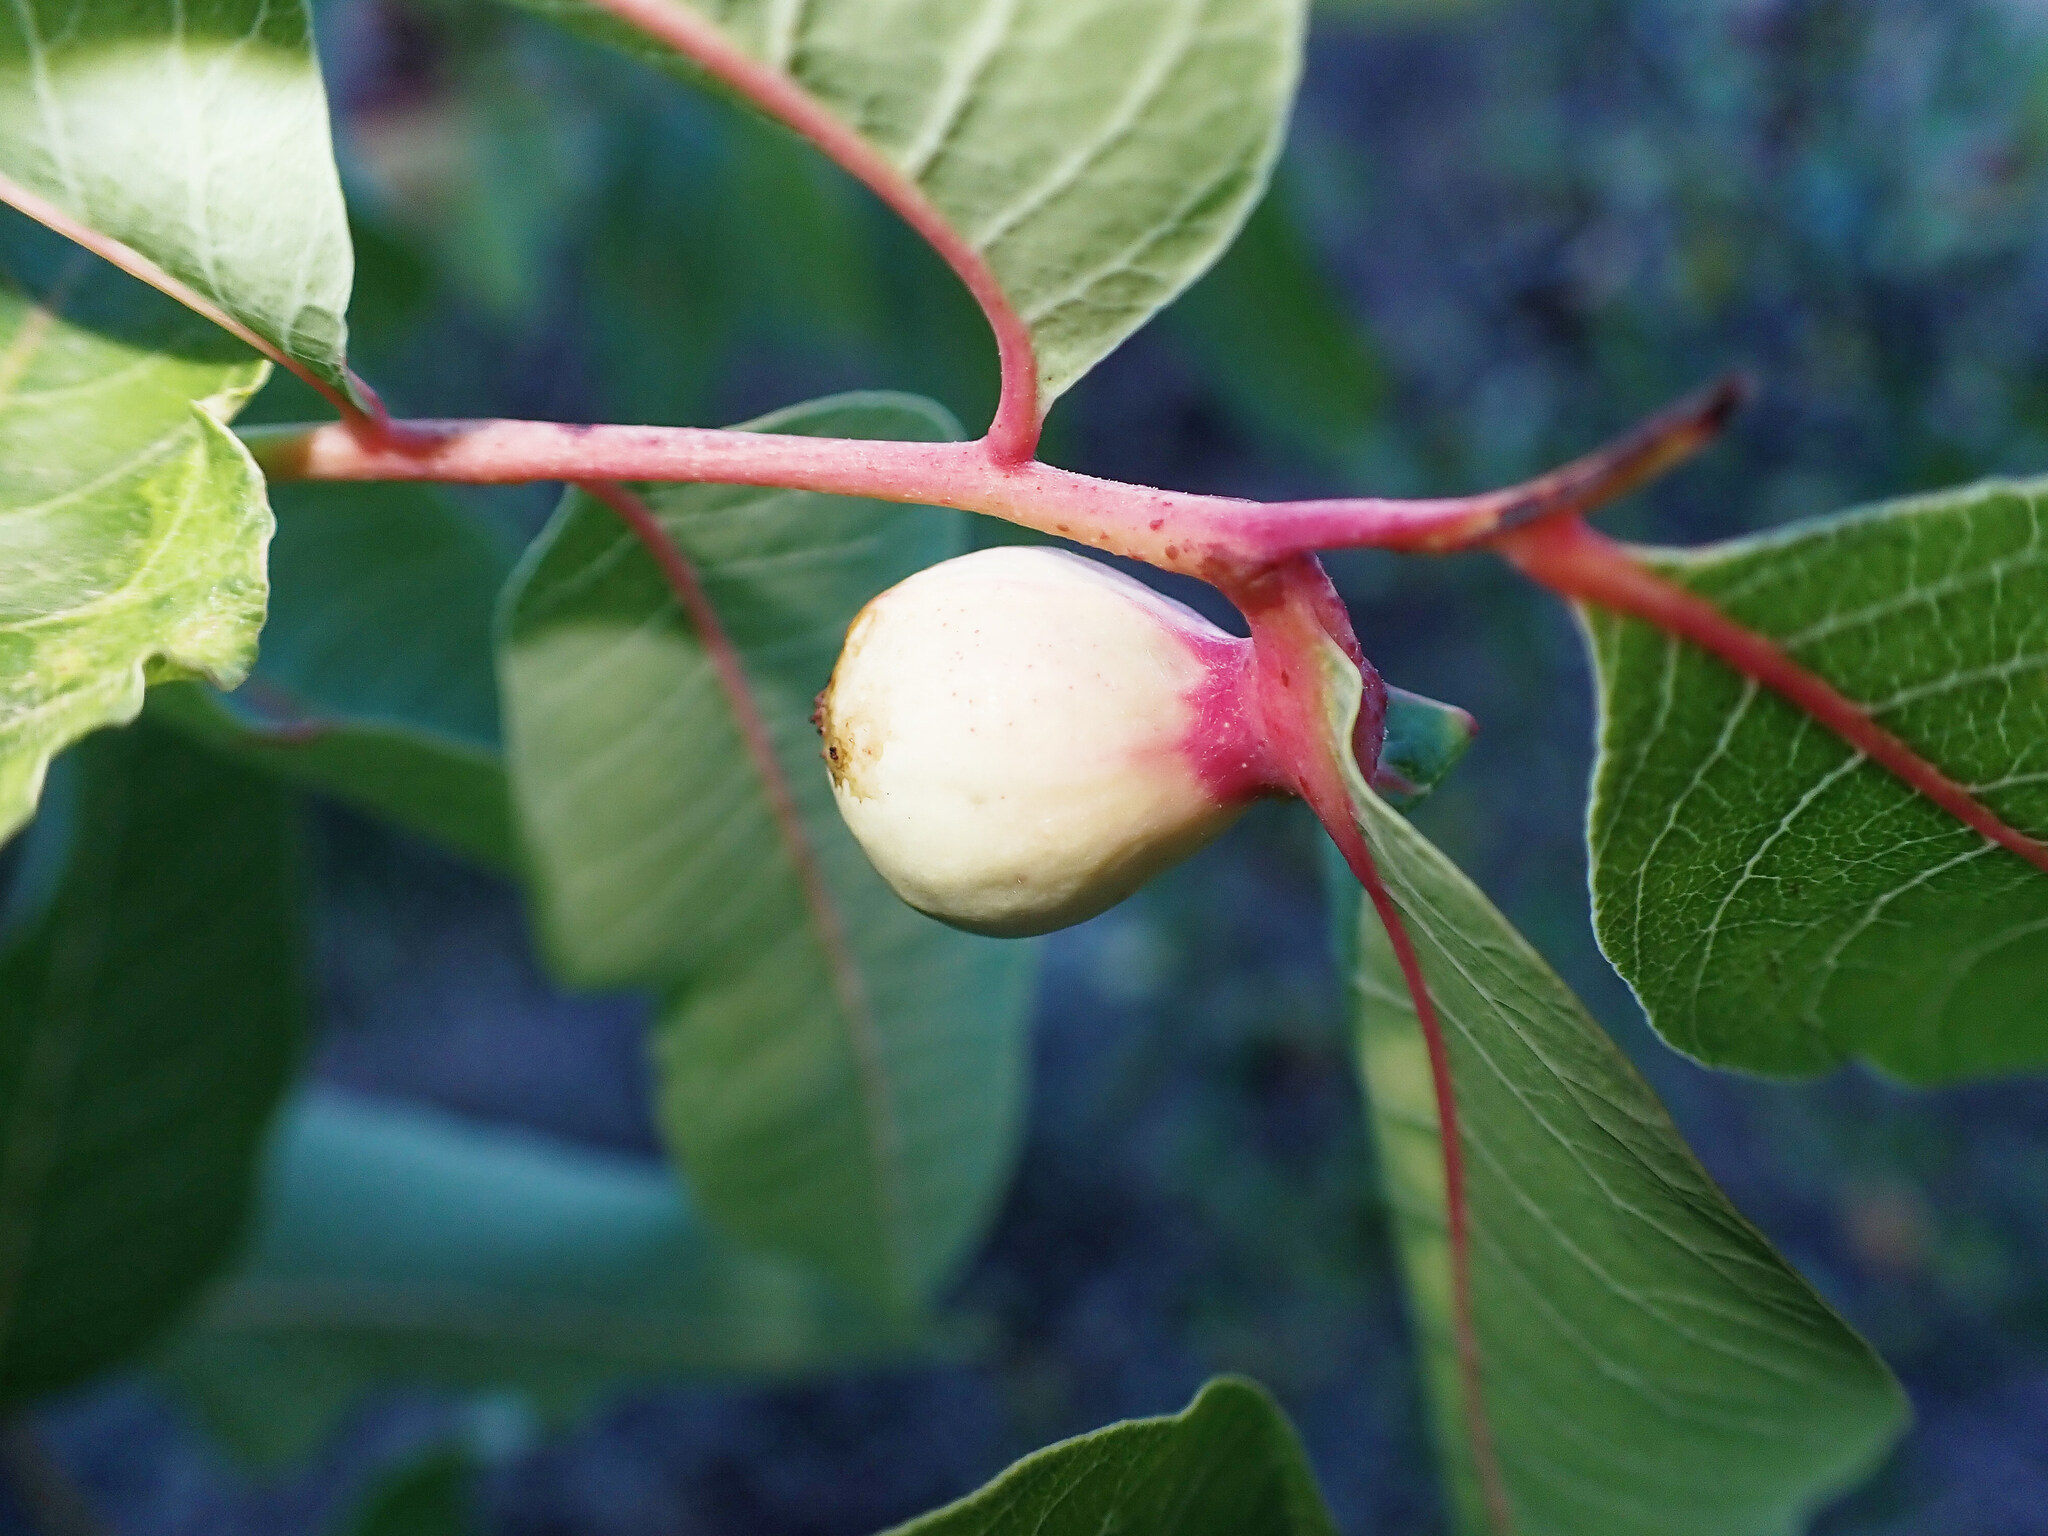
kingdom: Animalia
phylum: Arthropoda
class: Insecta
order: Hemiptera
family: Aphididae
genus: Geoica
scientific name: Geoica utricularia
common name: Aphid
